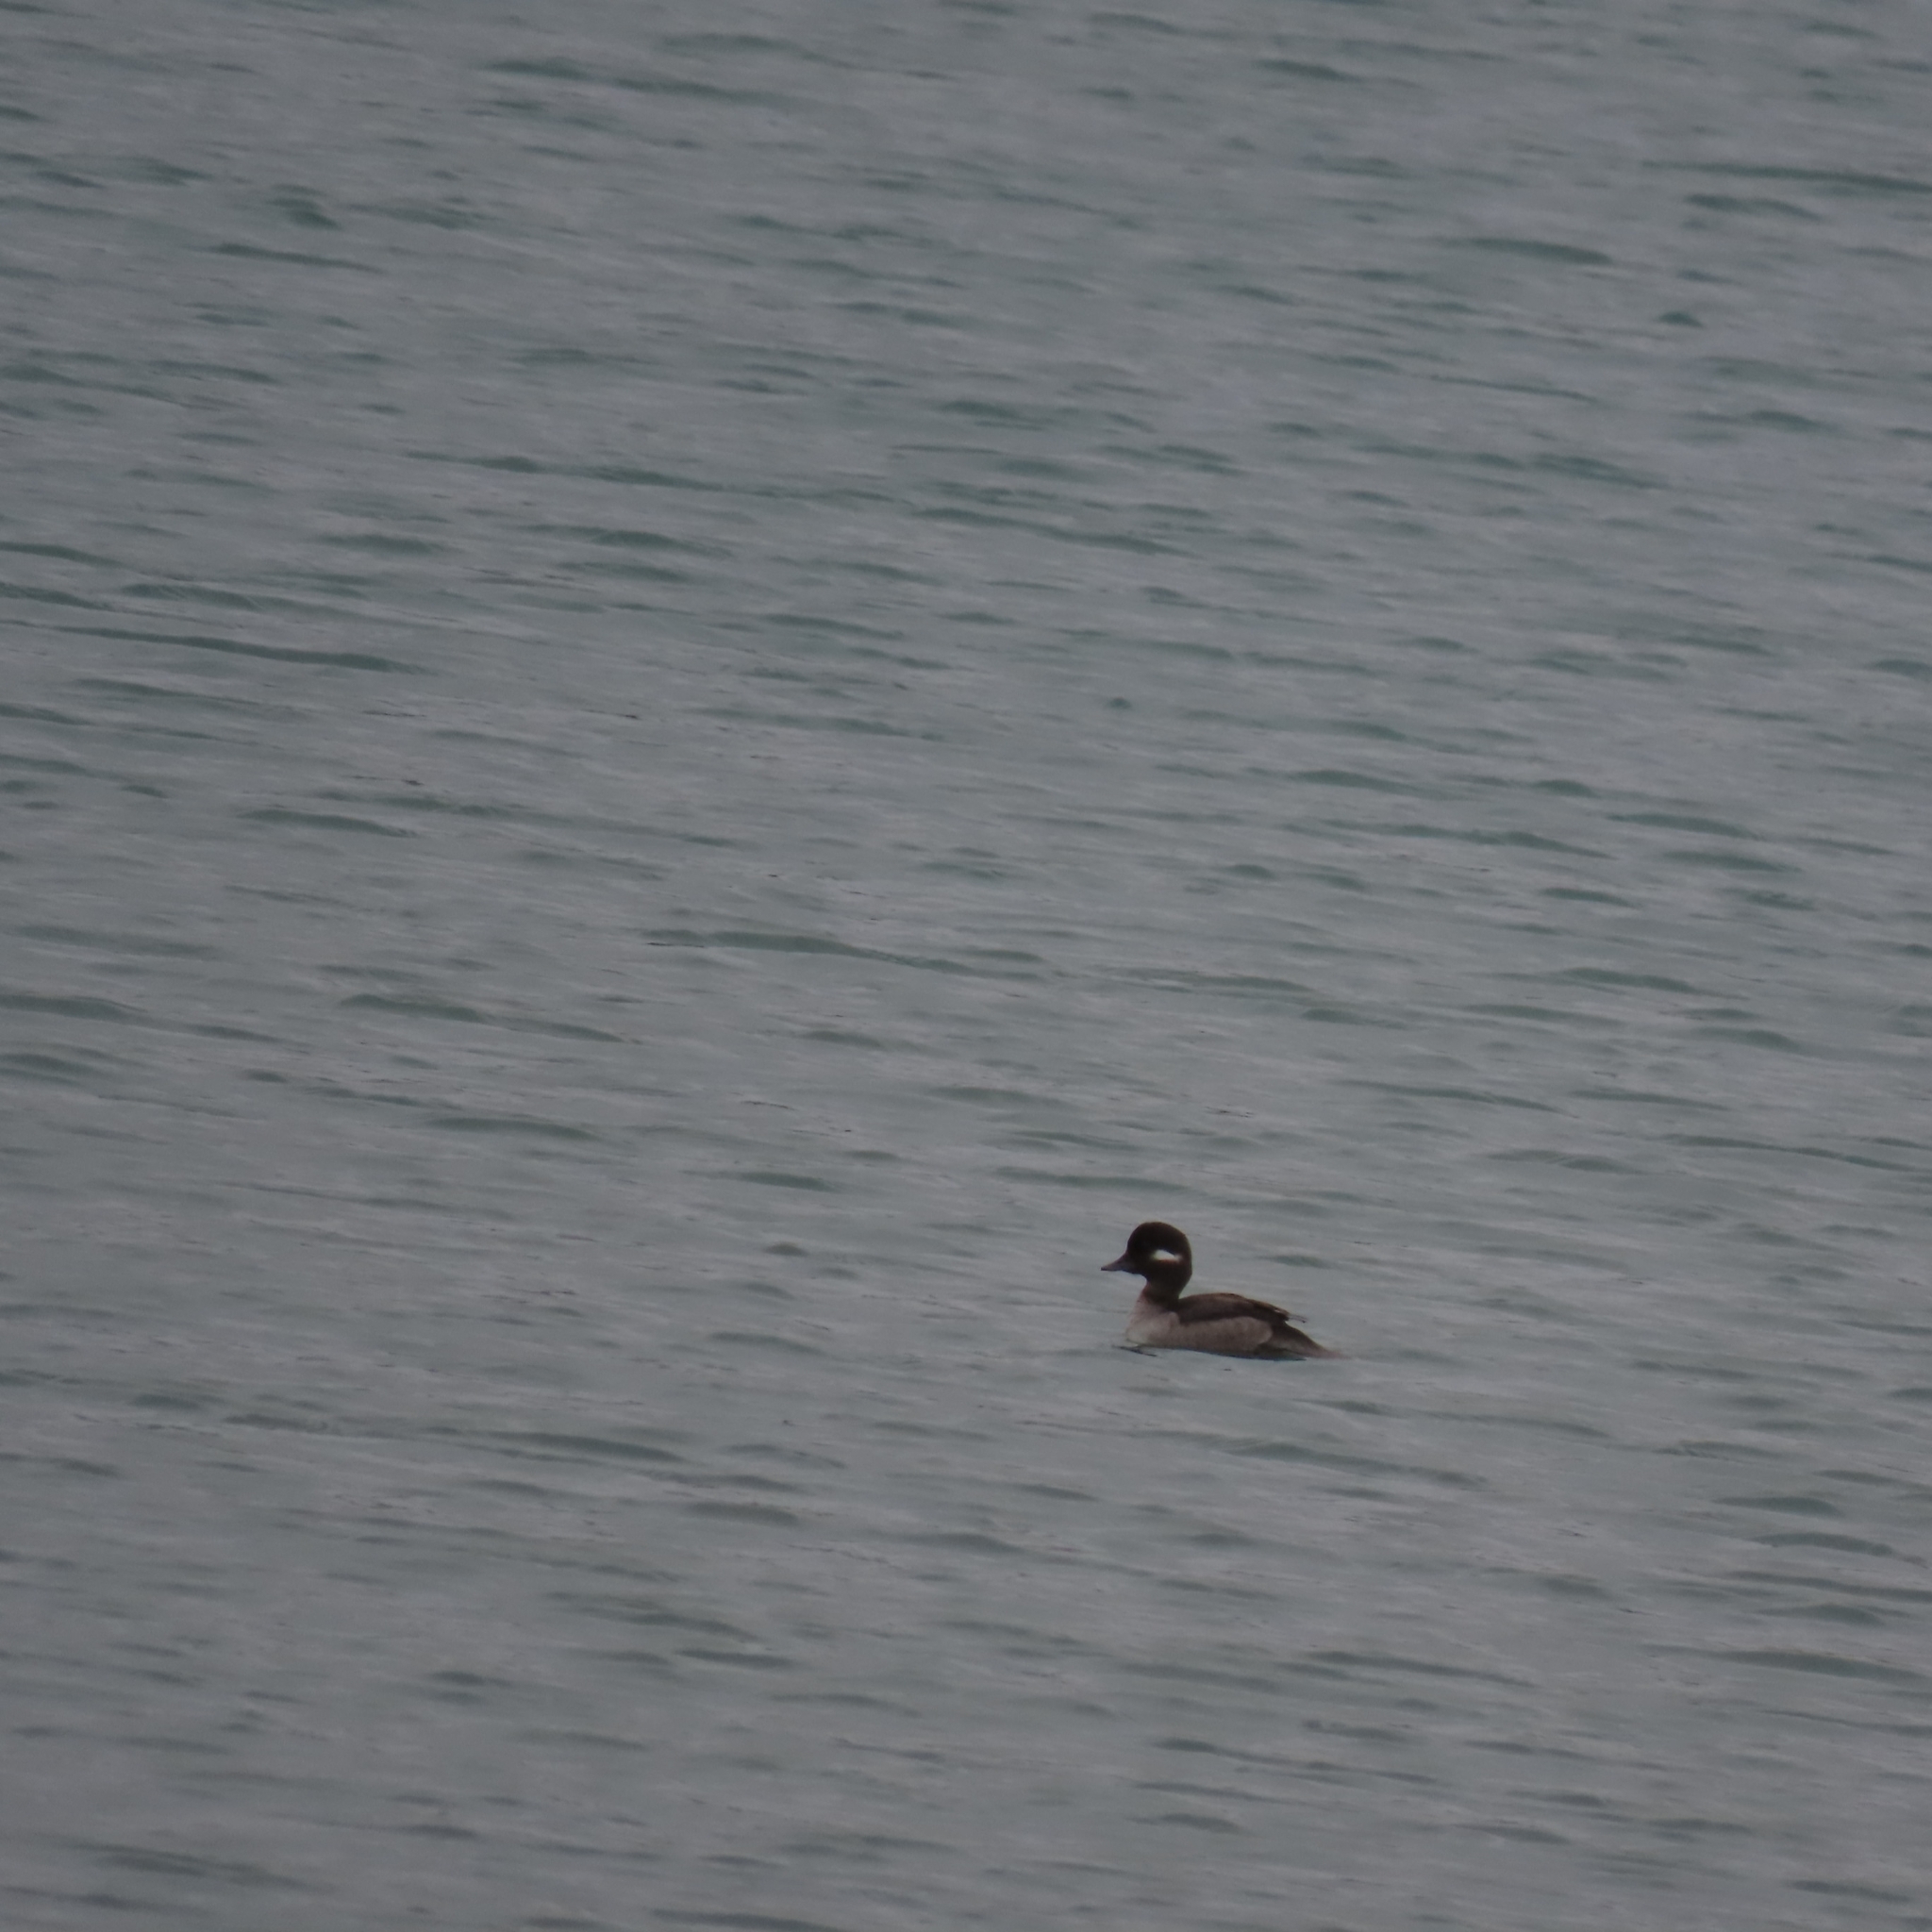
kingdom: Animalia
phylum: Chordata
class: Aves
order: Anseriformes
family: Anatidae
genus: Bucephala
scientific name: Bucephala albeola
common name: Bufflehead
